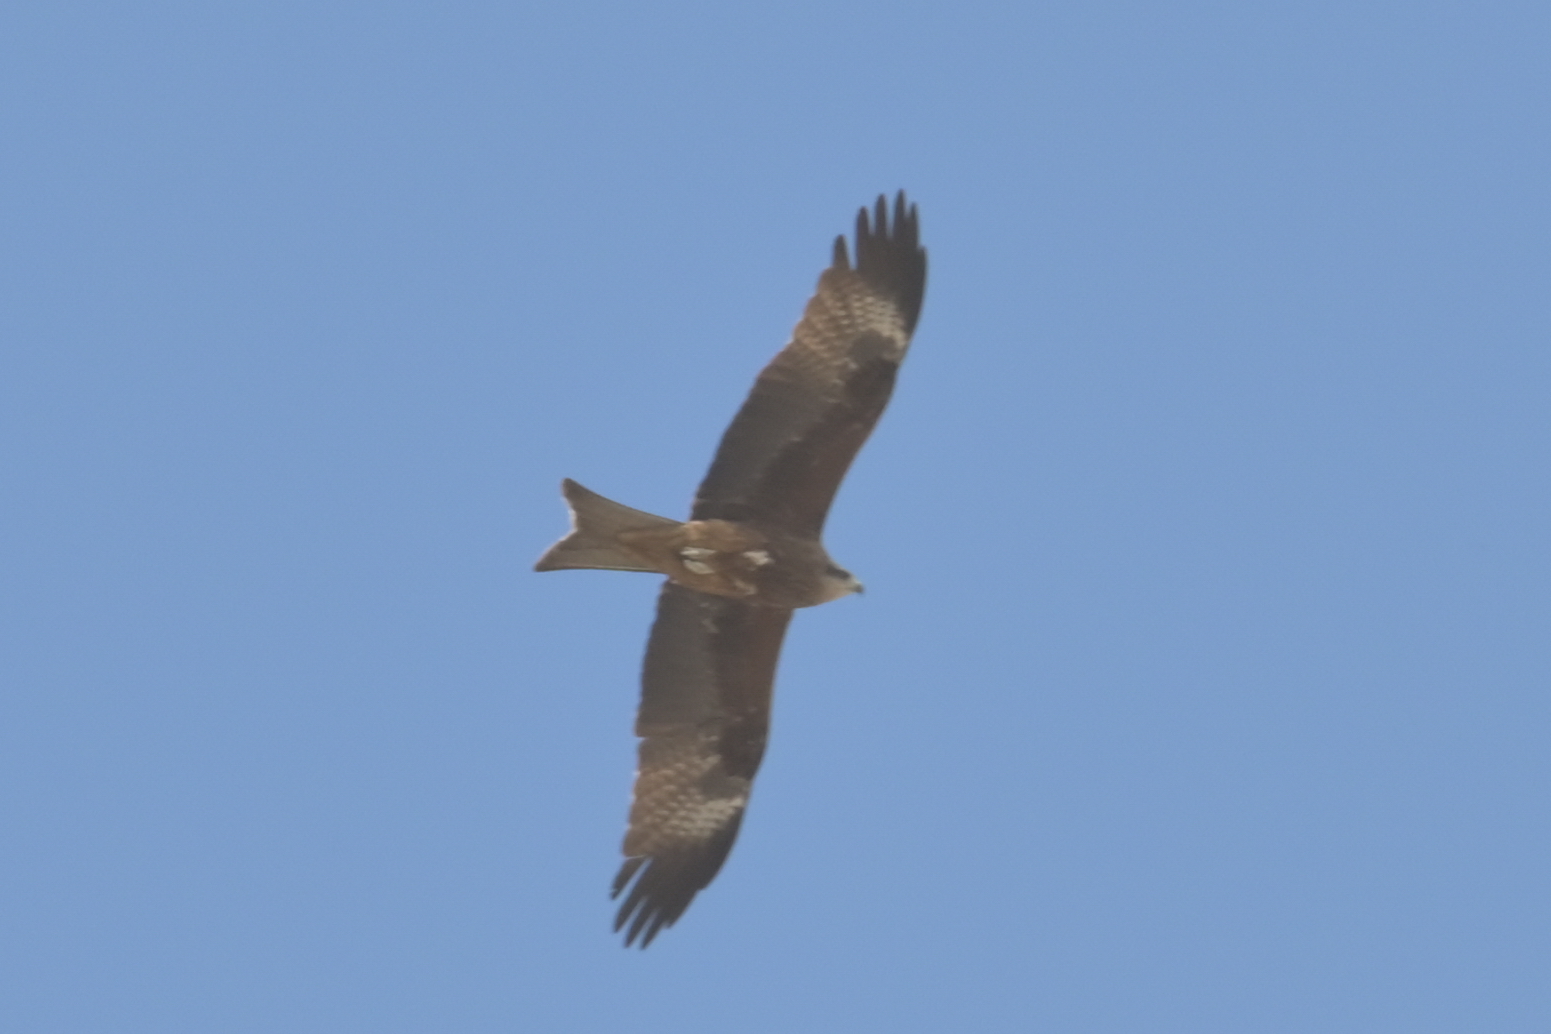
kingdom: Animalia
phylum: Chordata
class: Aves
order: Accipitriformes
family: Accipitridae
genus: Milvus
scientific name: Milvus migrans
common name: Black kite
